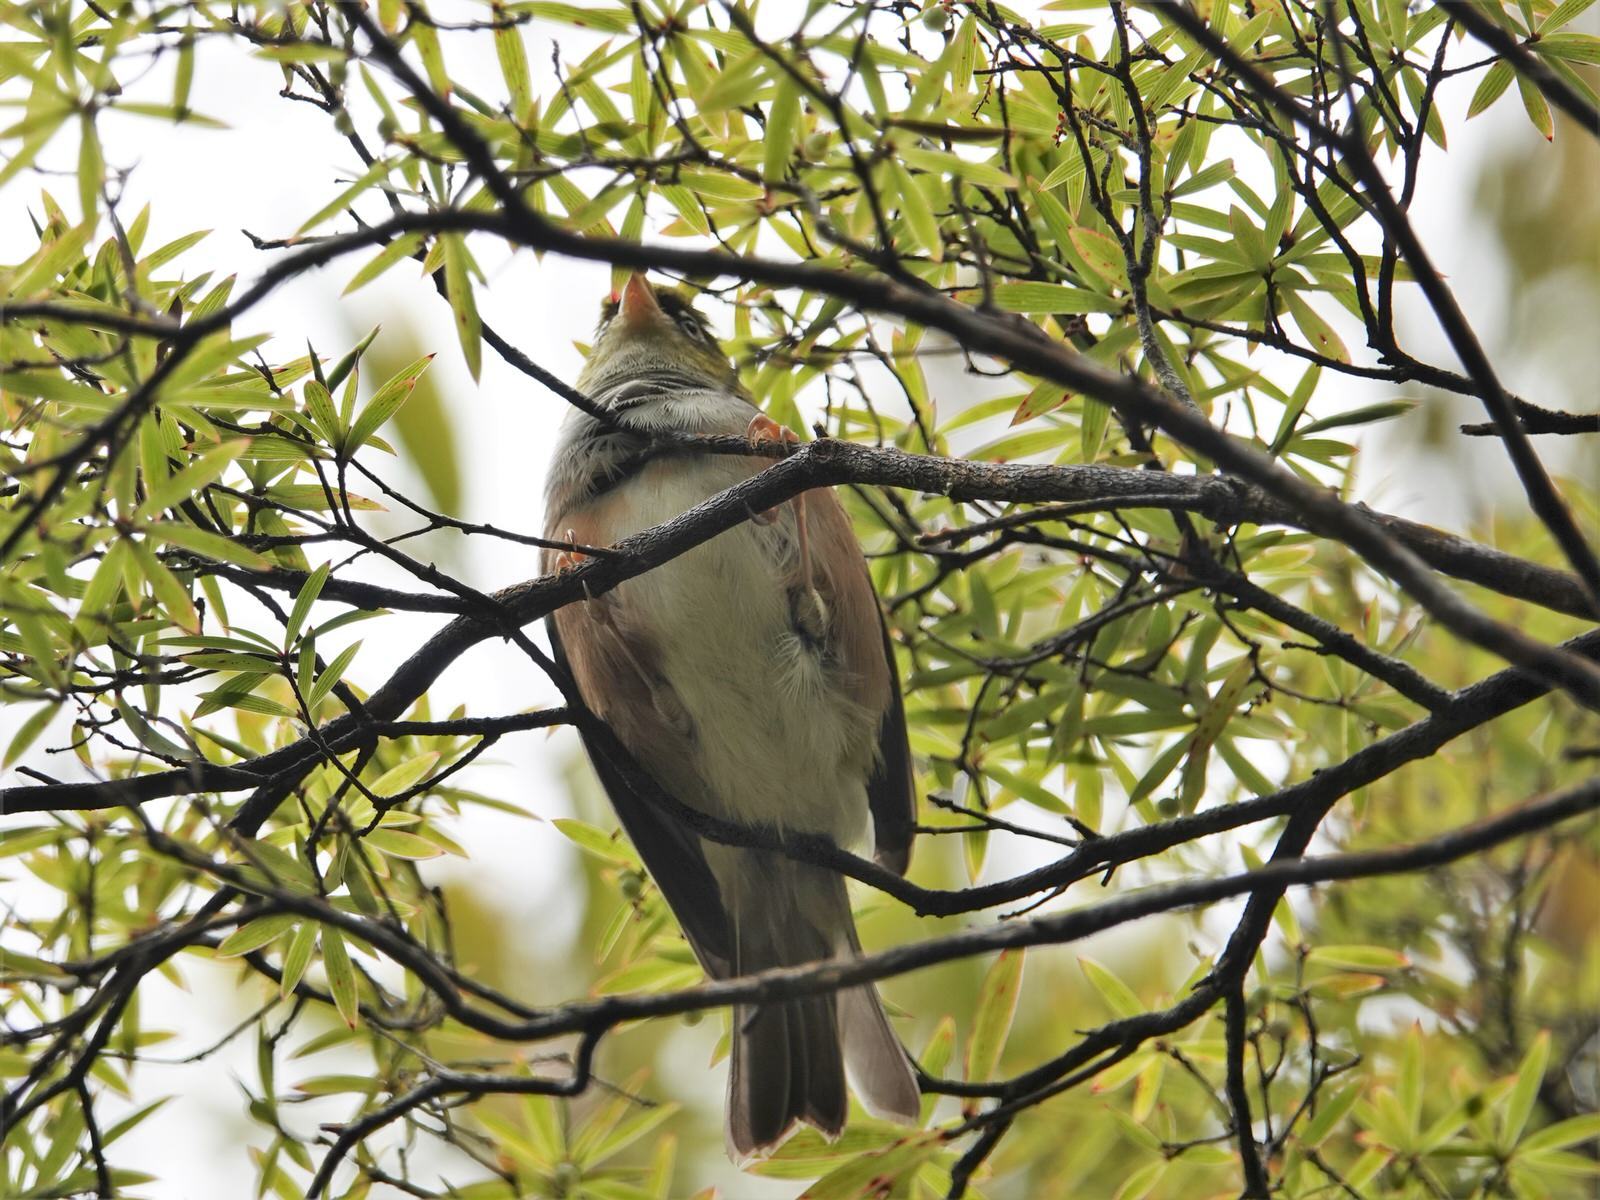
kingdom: Animalia
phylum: Chordata
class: Aves
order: Passeriformes
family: Zosteropidae
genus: Zosterops
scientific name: Zosterops lateralis
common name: Silvereye
